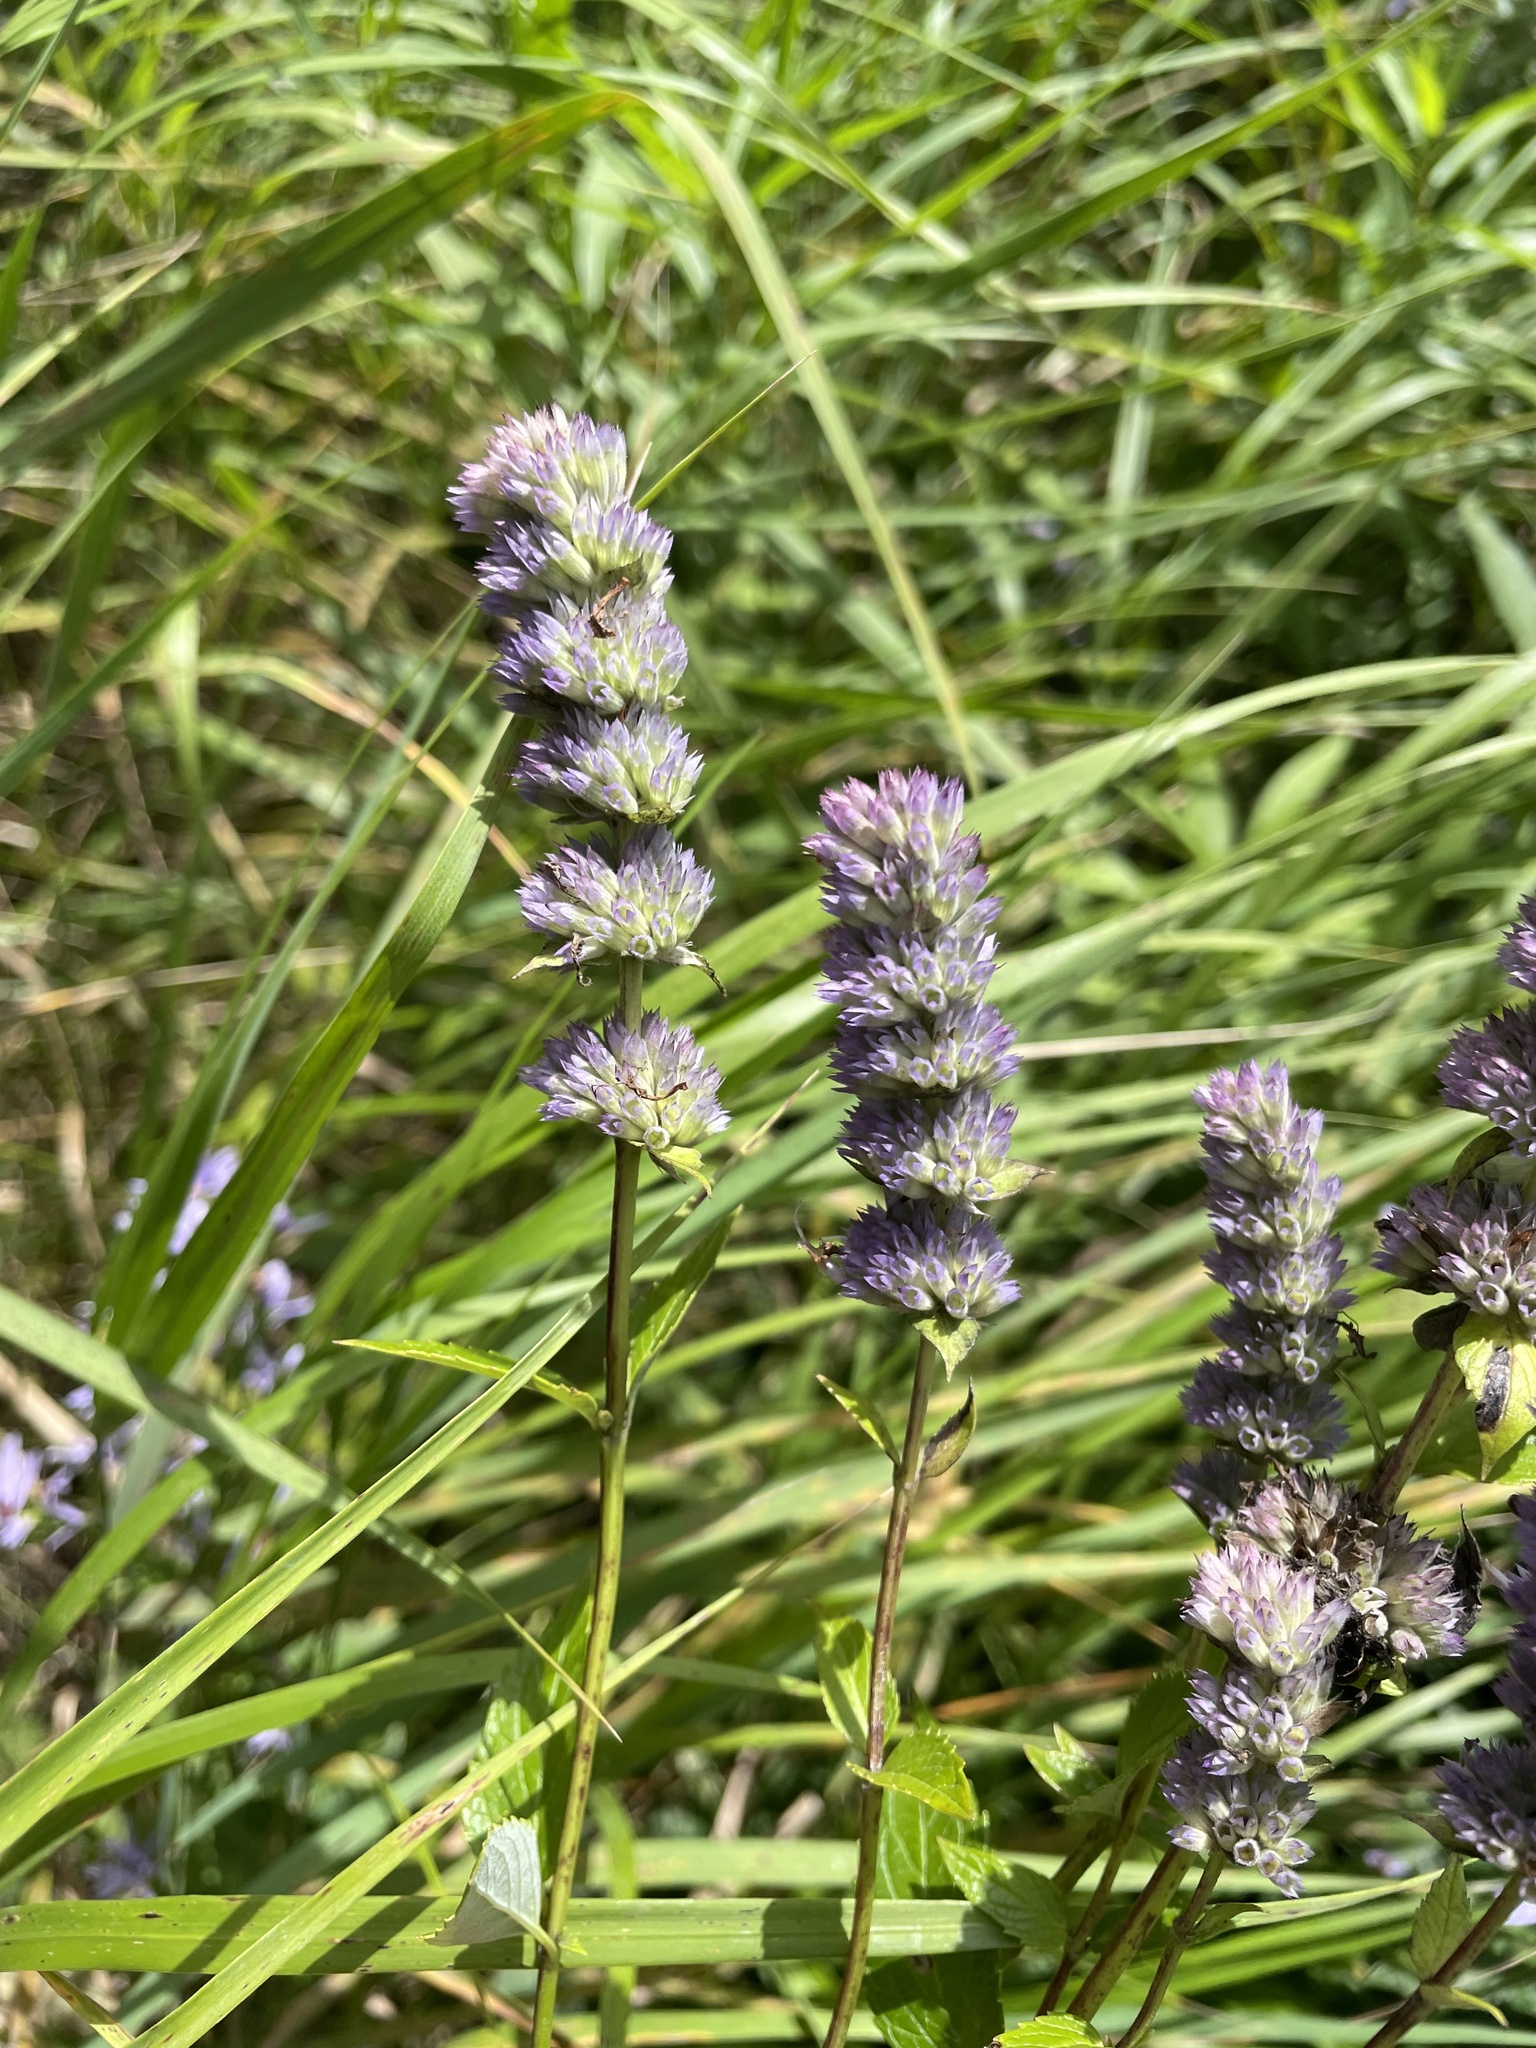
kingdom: Plantae
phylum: Tracheophyta
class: Magnoliopsida
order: Lamiales
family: Lamiaceae
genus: Agastache
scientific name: Agastache foeniculum
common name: Anise hyssop
